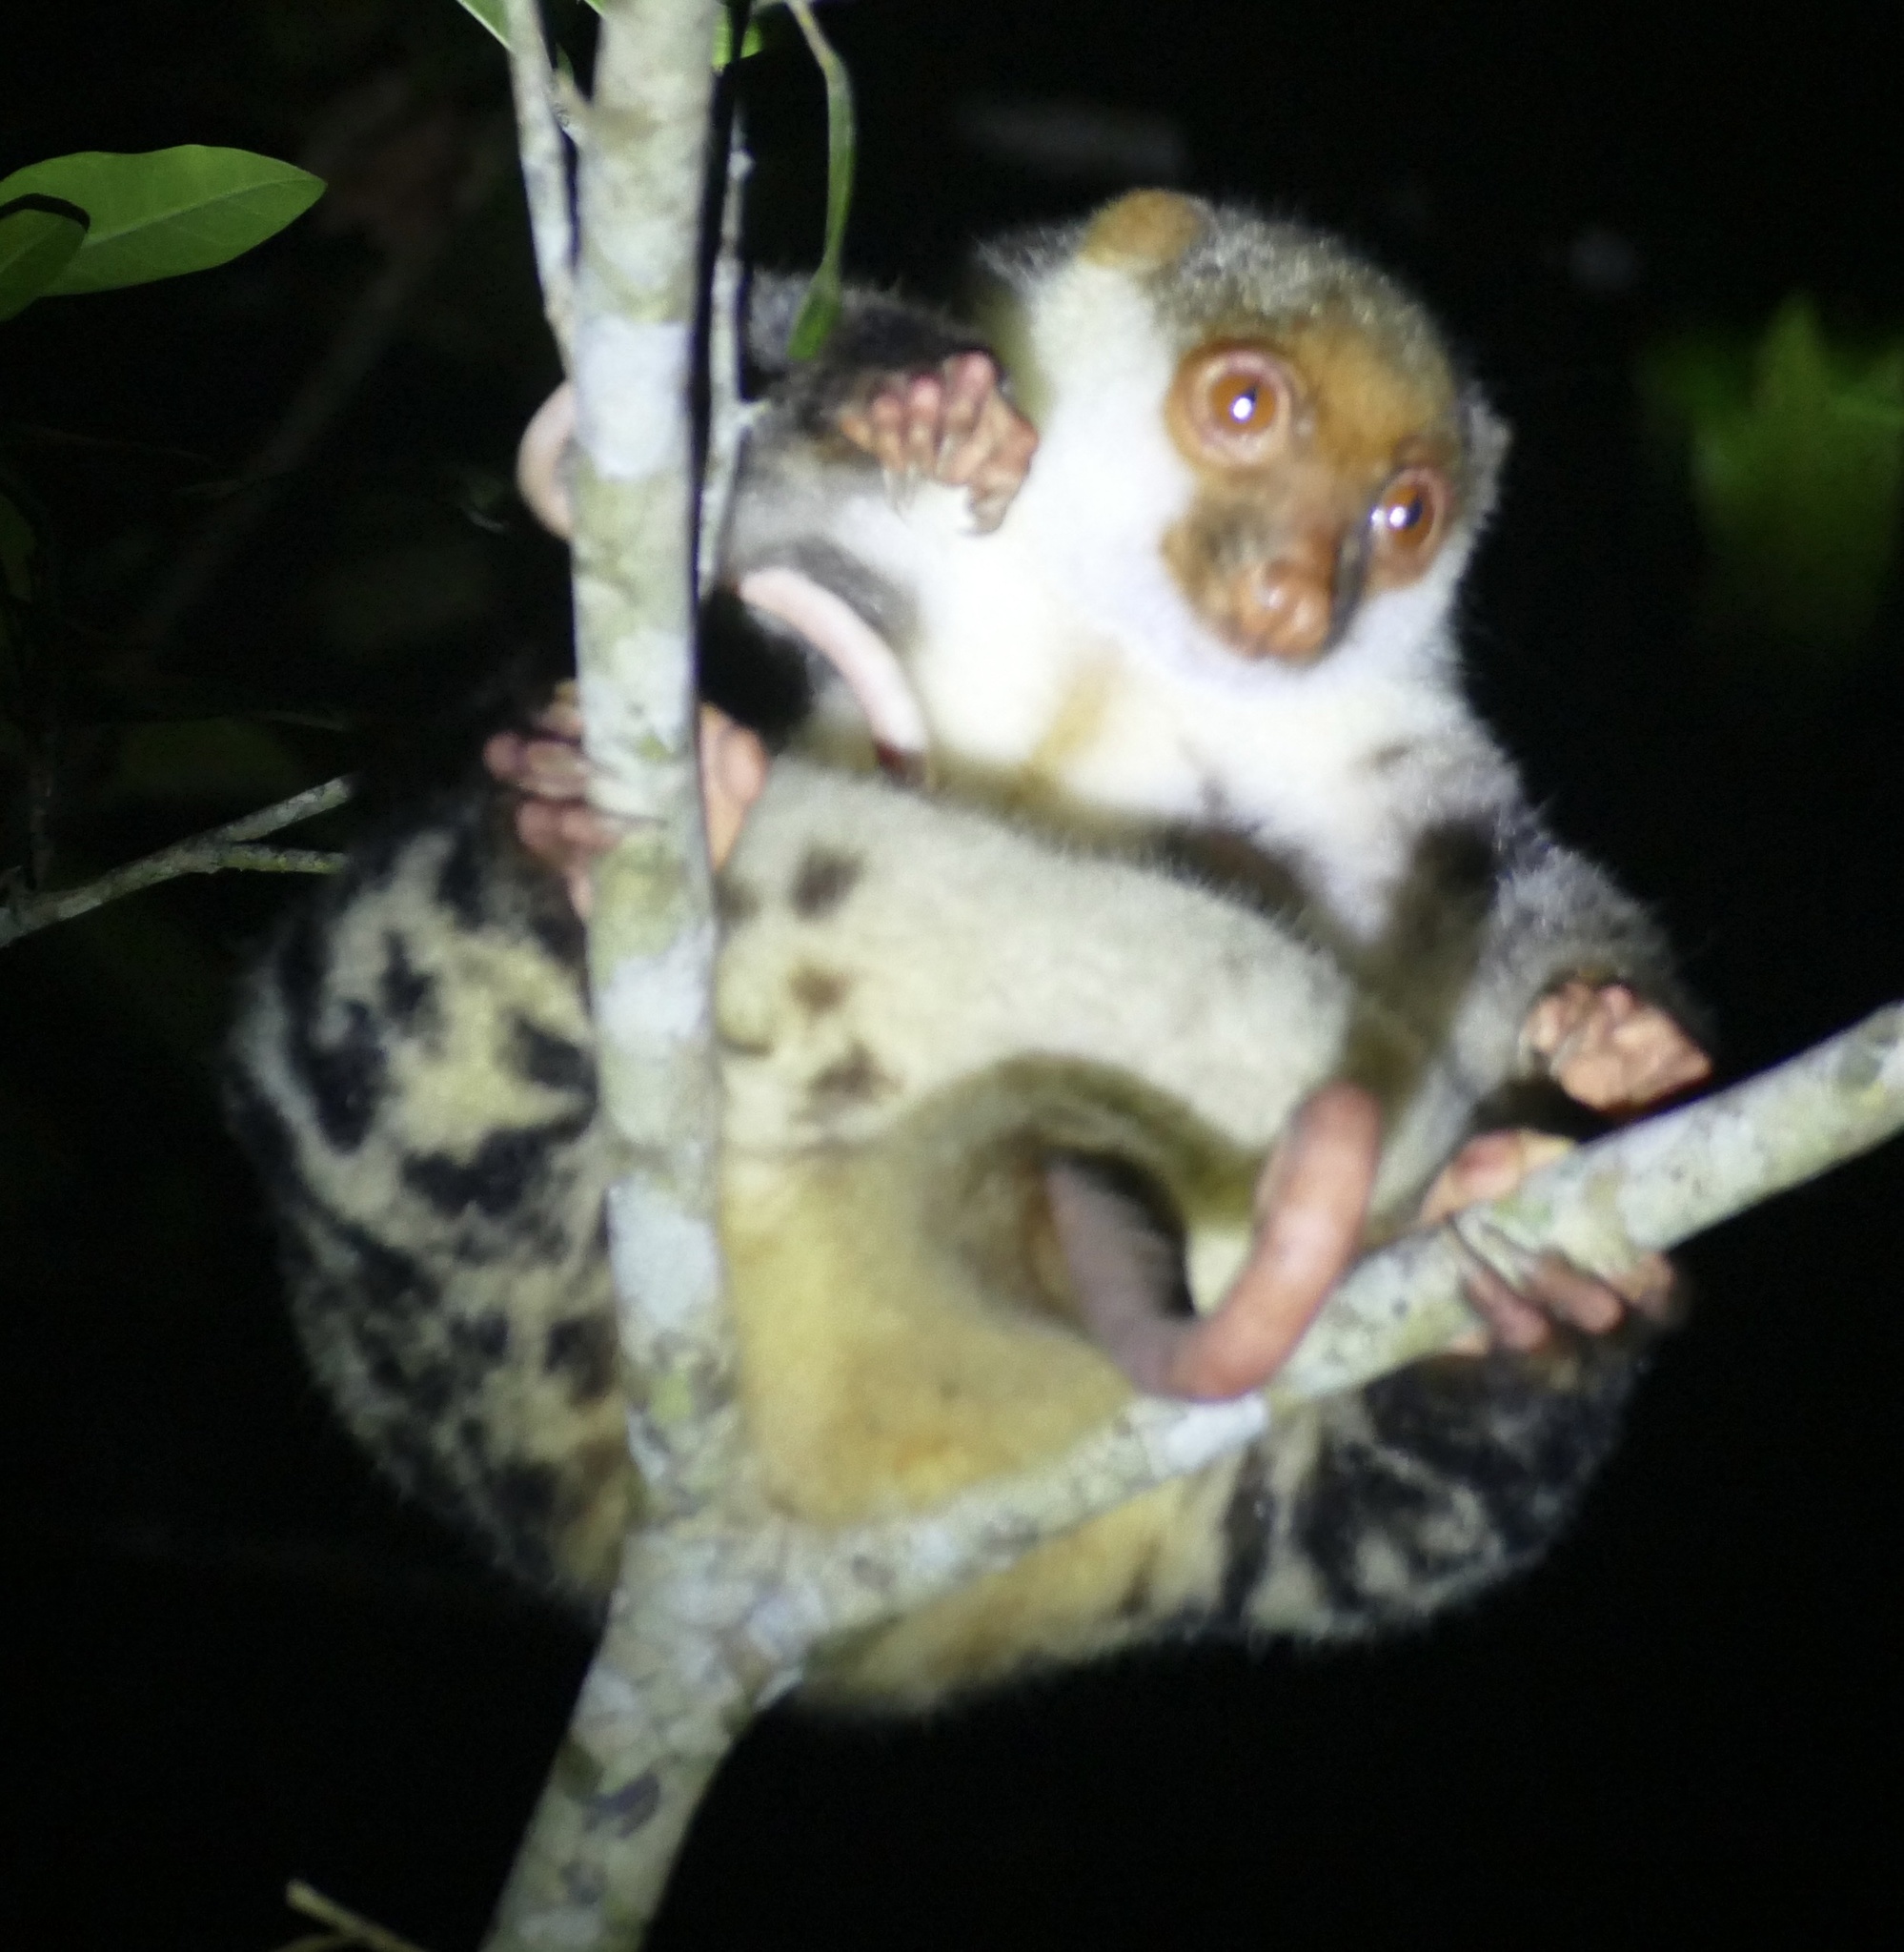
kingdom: Animalia
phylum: Chordata
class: Mammalia
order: Diprotodontia
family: Phalangeridae
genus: Spilocuscus
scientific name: Spilocuscus papuensis
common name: Waigeou cuscus
